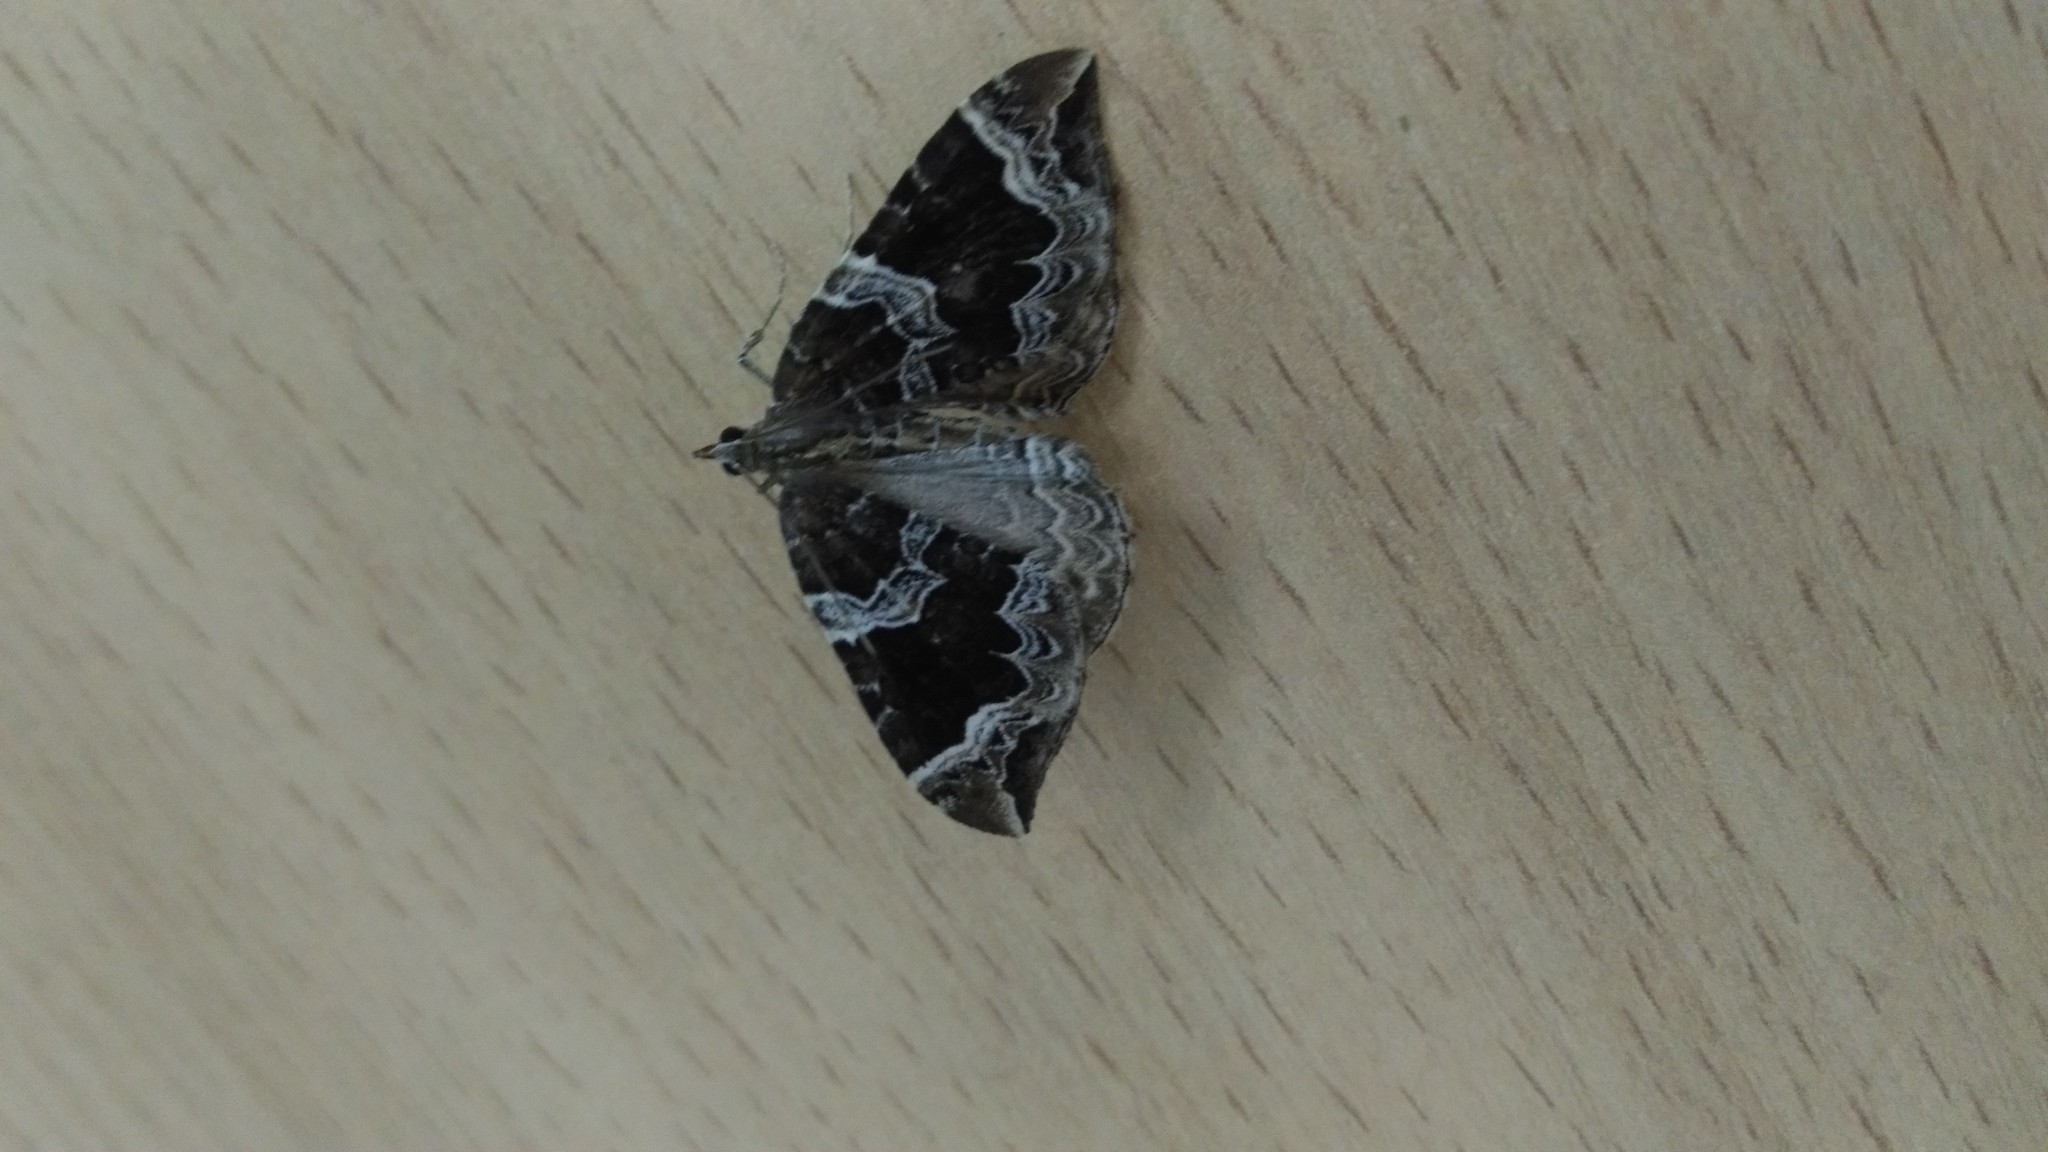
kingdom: Animalia
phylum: Arthropoda
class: Insecta
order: Lepidoptera
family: Geometridae
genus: Eulithis
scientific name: Eulithis prunata
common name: Phoenix
